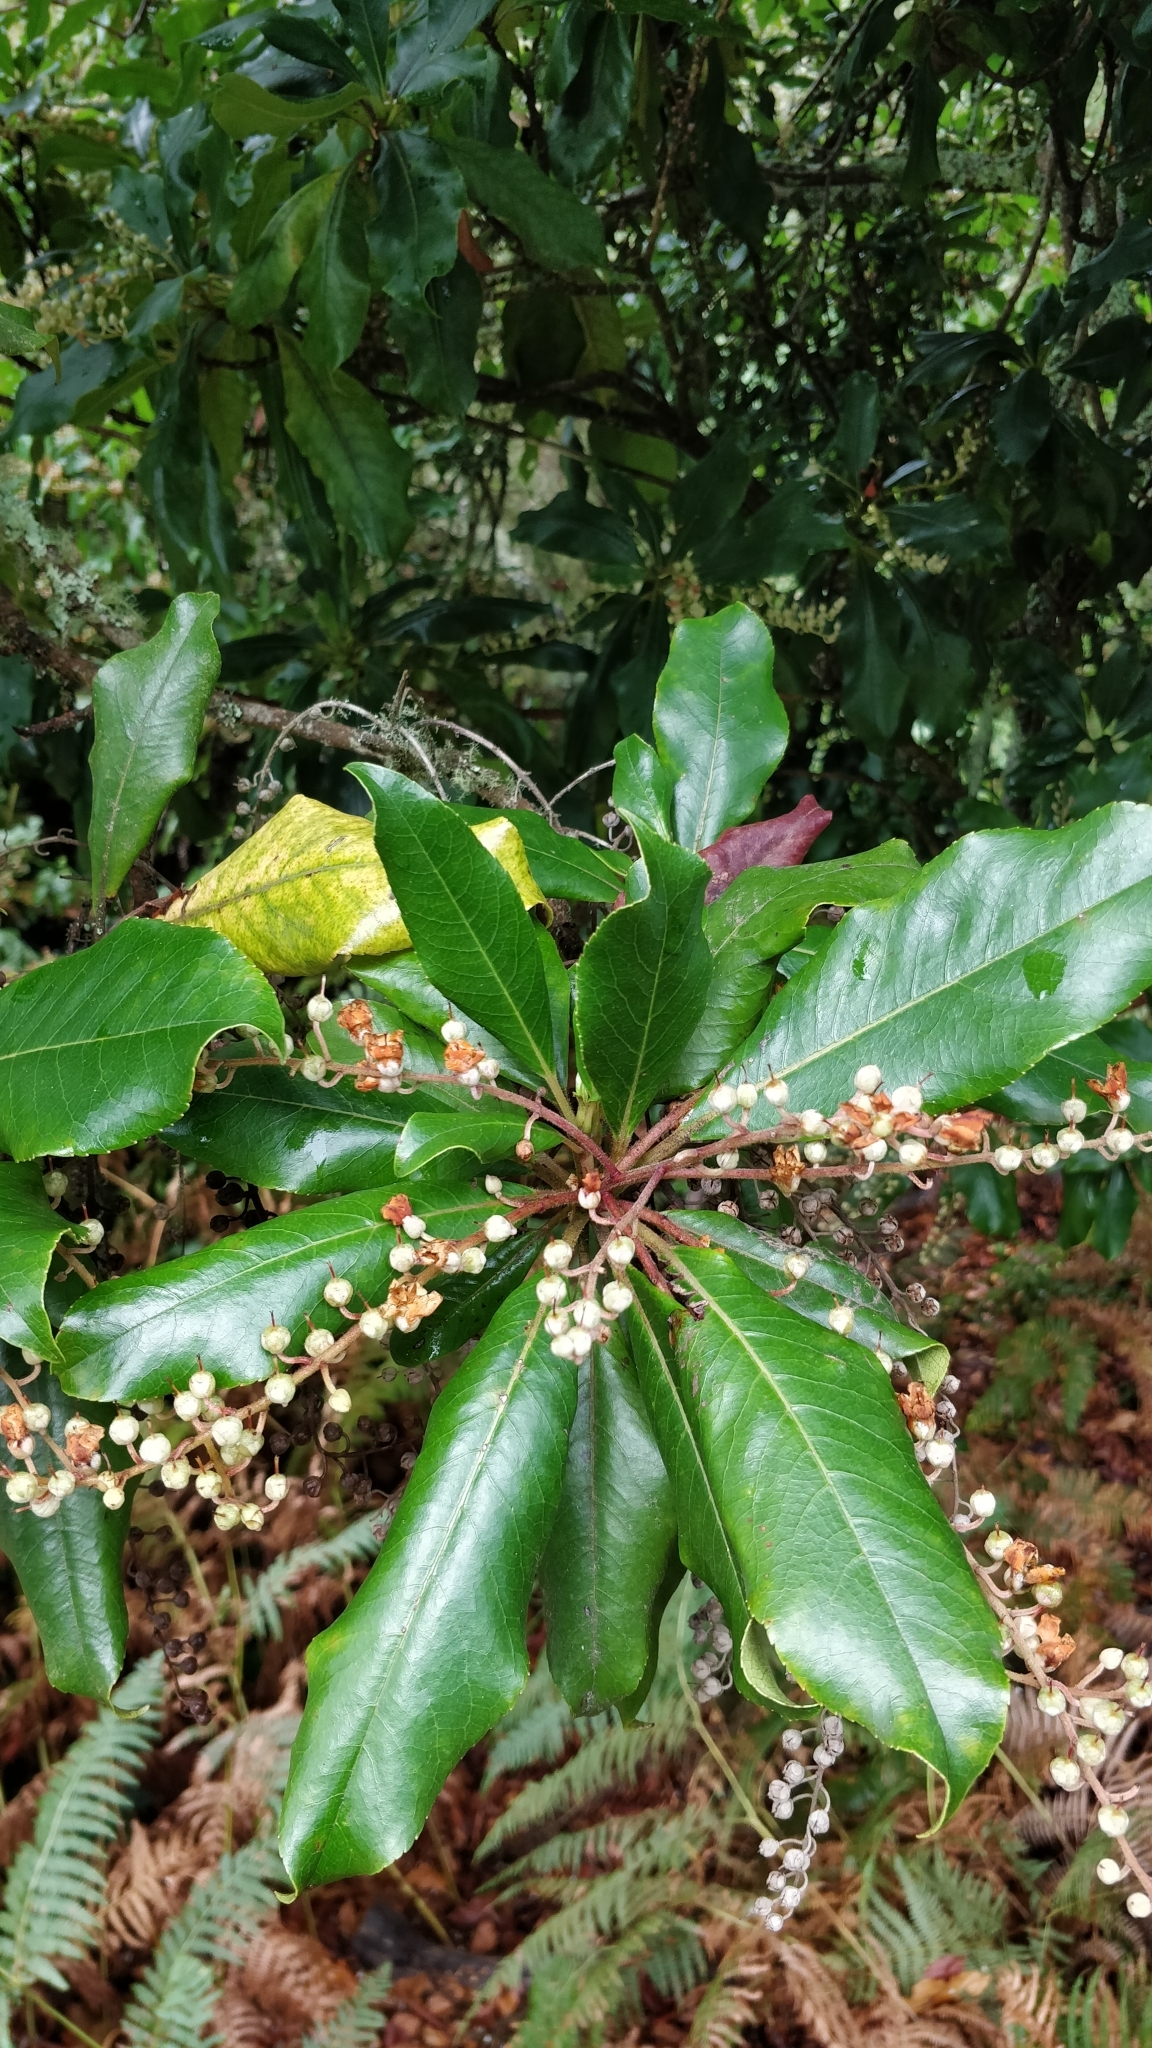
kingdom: Plantae
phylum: Tracheophyta
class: Magnoliopsida
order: Ericales
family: Clethraceae
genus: Clethra
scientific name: Clethra arborea
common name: Lily-of-the-valley-tree
